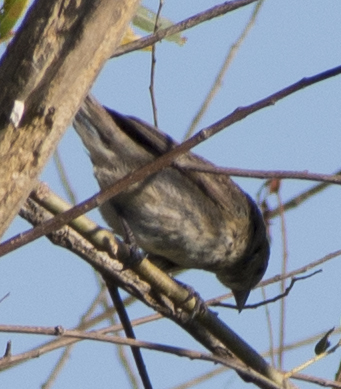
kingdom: Animalia
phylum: Chordata
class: Aves
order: Passeriformes
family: Cardinalidae
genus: Passerina
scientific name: Passerina cyanea
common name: Indigo bunting
